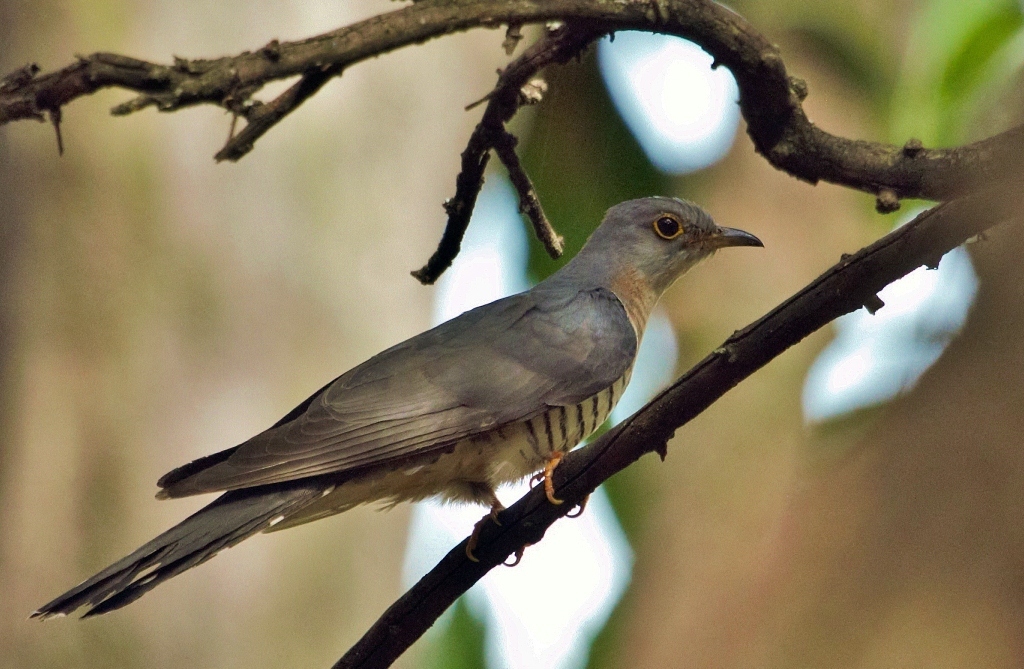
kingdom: Animalia
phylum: Chordata
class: Aves
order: Cuculiformes
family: Cuculidae
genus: Cuculus
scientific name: Cuculus solitarius
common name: Red-chested cuckoo
